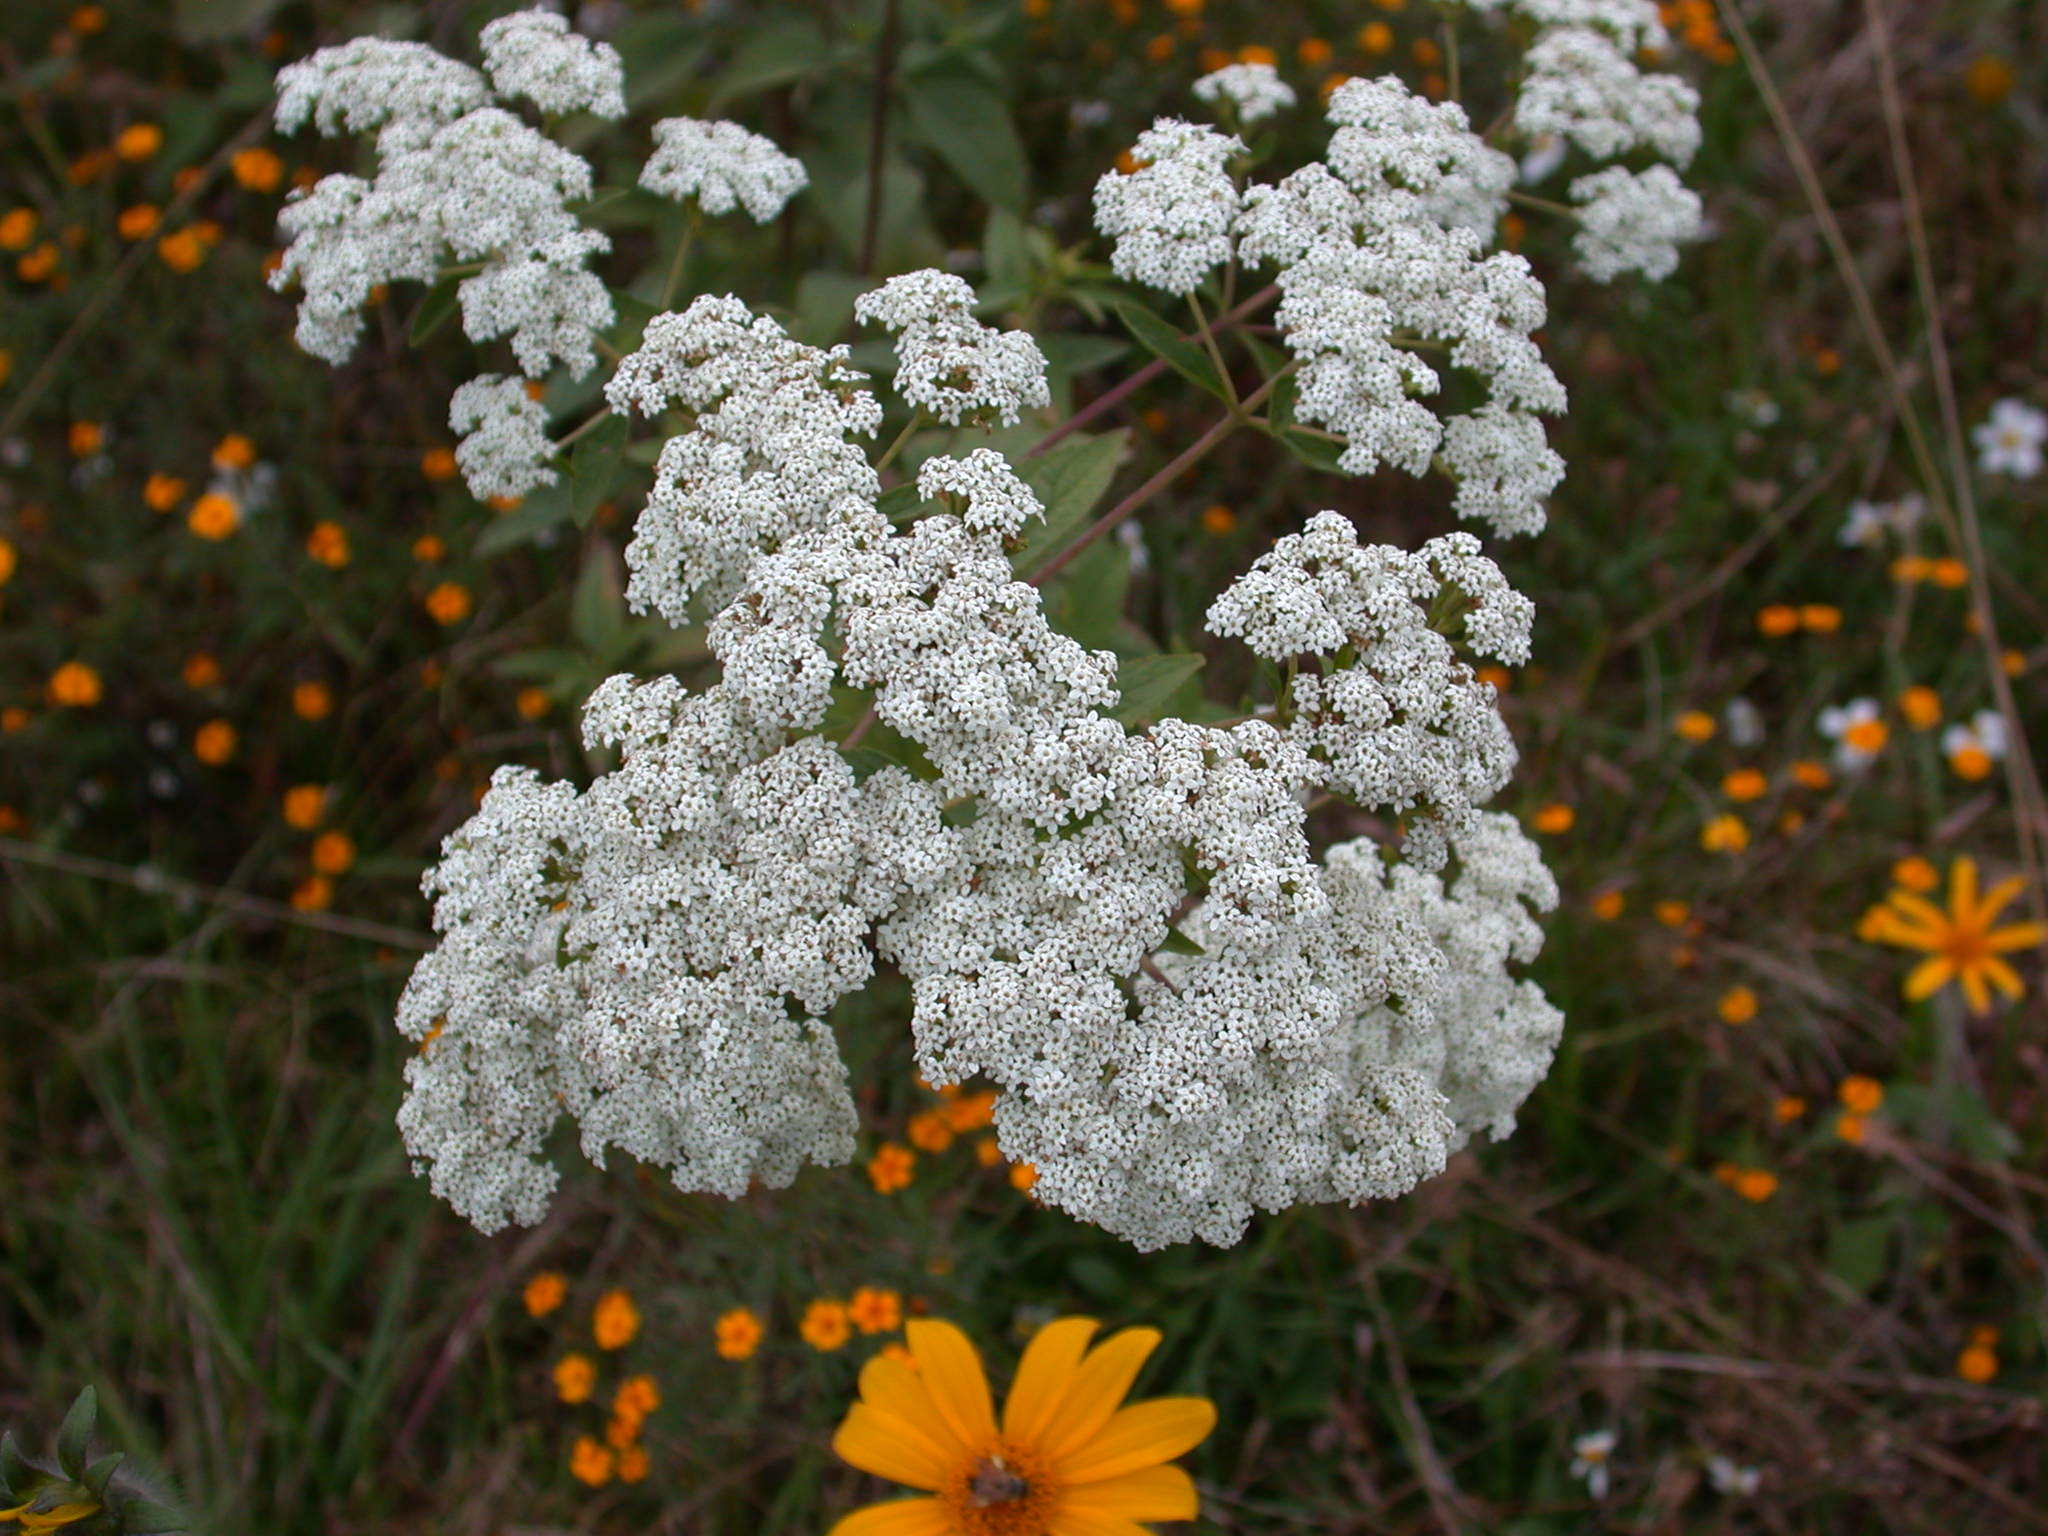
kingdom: Plantae
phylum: Tracheophyta
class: Magnoliopsida
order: Asterales
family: Asteraceae
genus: Stevia
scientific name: Stevia ovata
